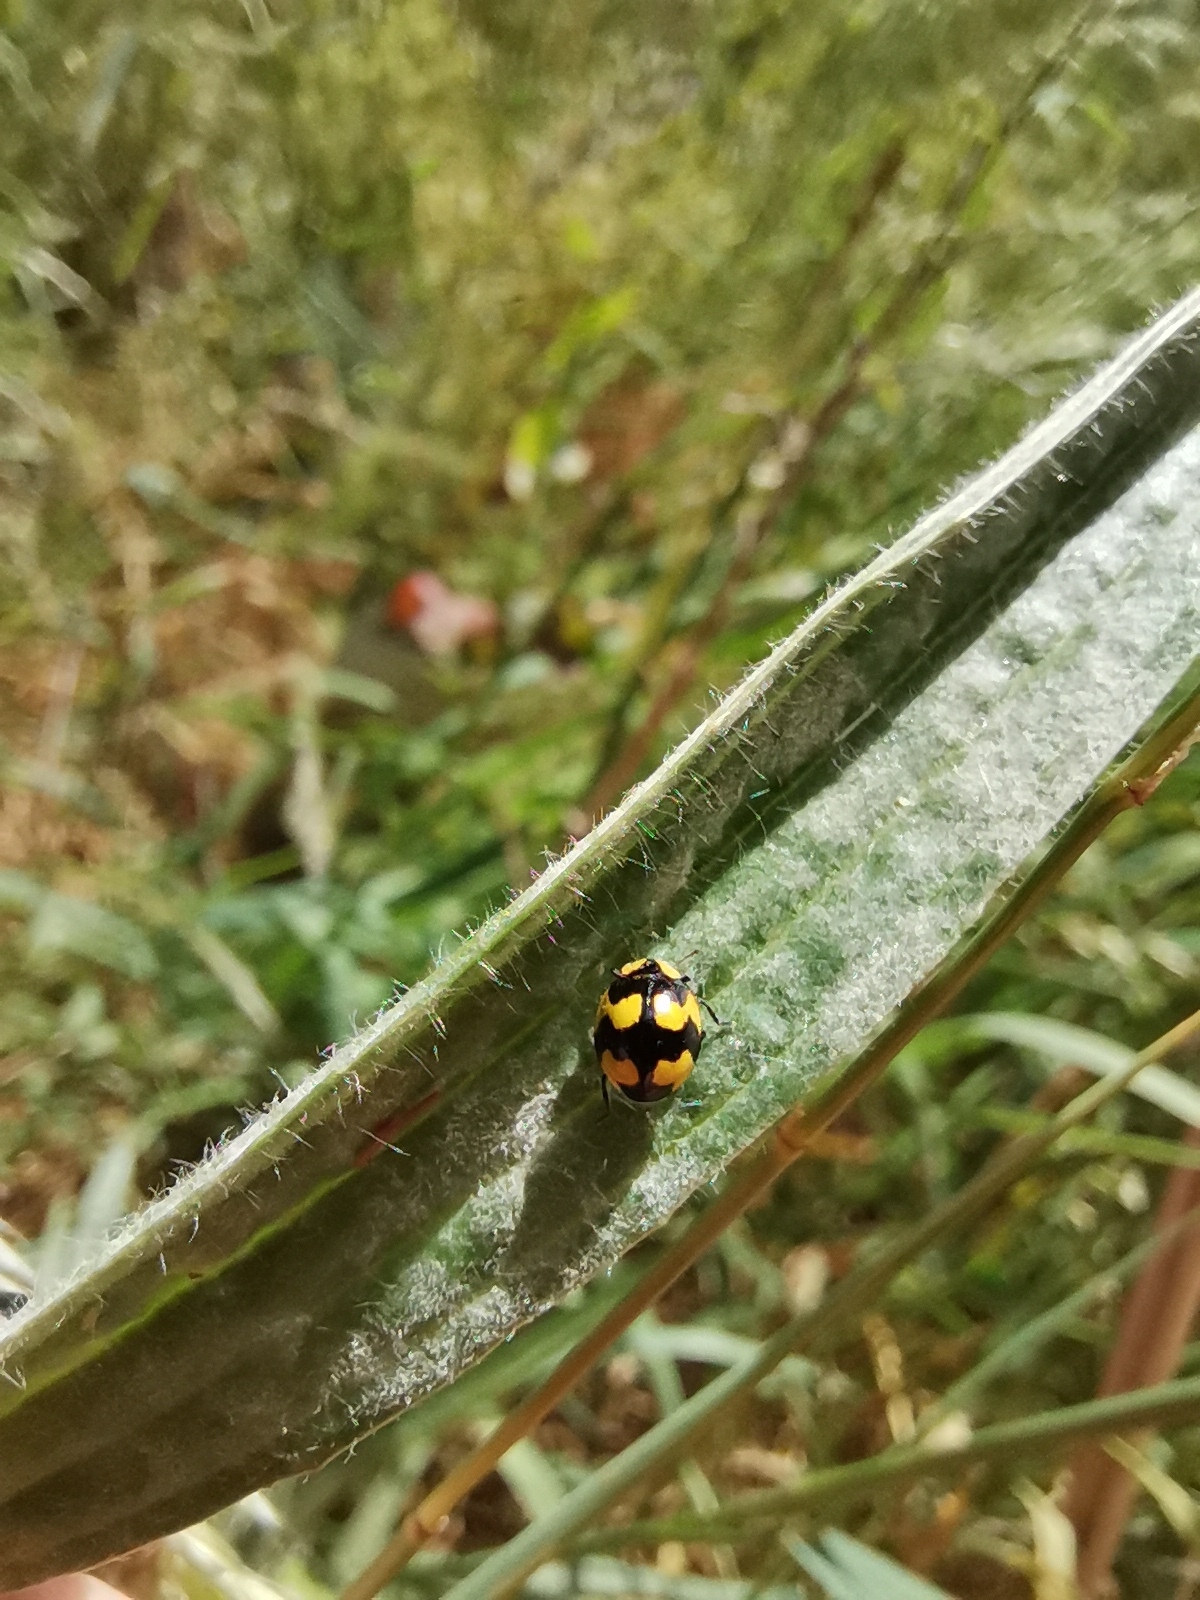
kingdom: Animalia
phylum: Arthropoda
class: Insecta
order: Coleoptera
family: Coccinellidae
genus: Illeis
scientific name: Illeis galbula
